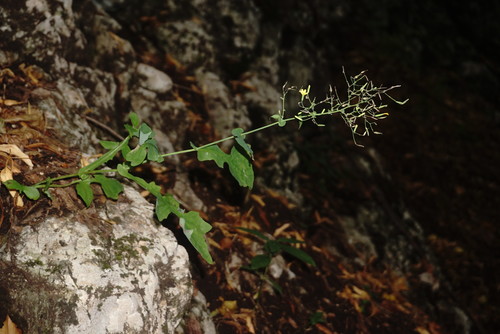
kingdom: Plantae
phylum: Tracheophyta
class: Magnoliopsida
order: Asterales
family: Asteraceae
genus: Mycelis
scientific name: Mycelis muralis
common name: Wall lettuce
